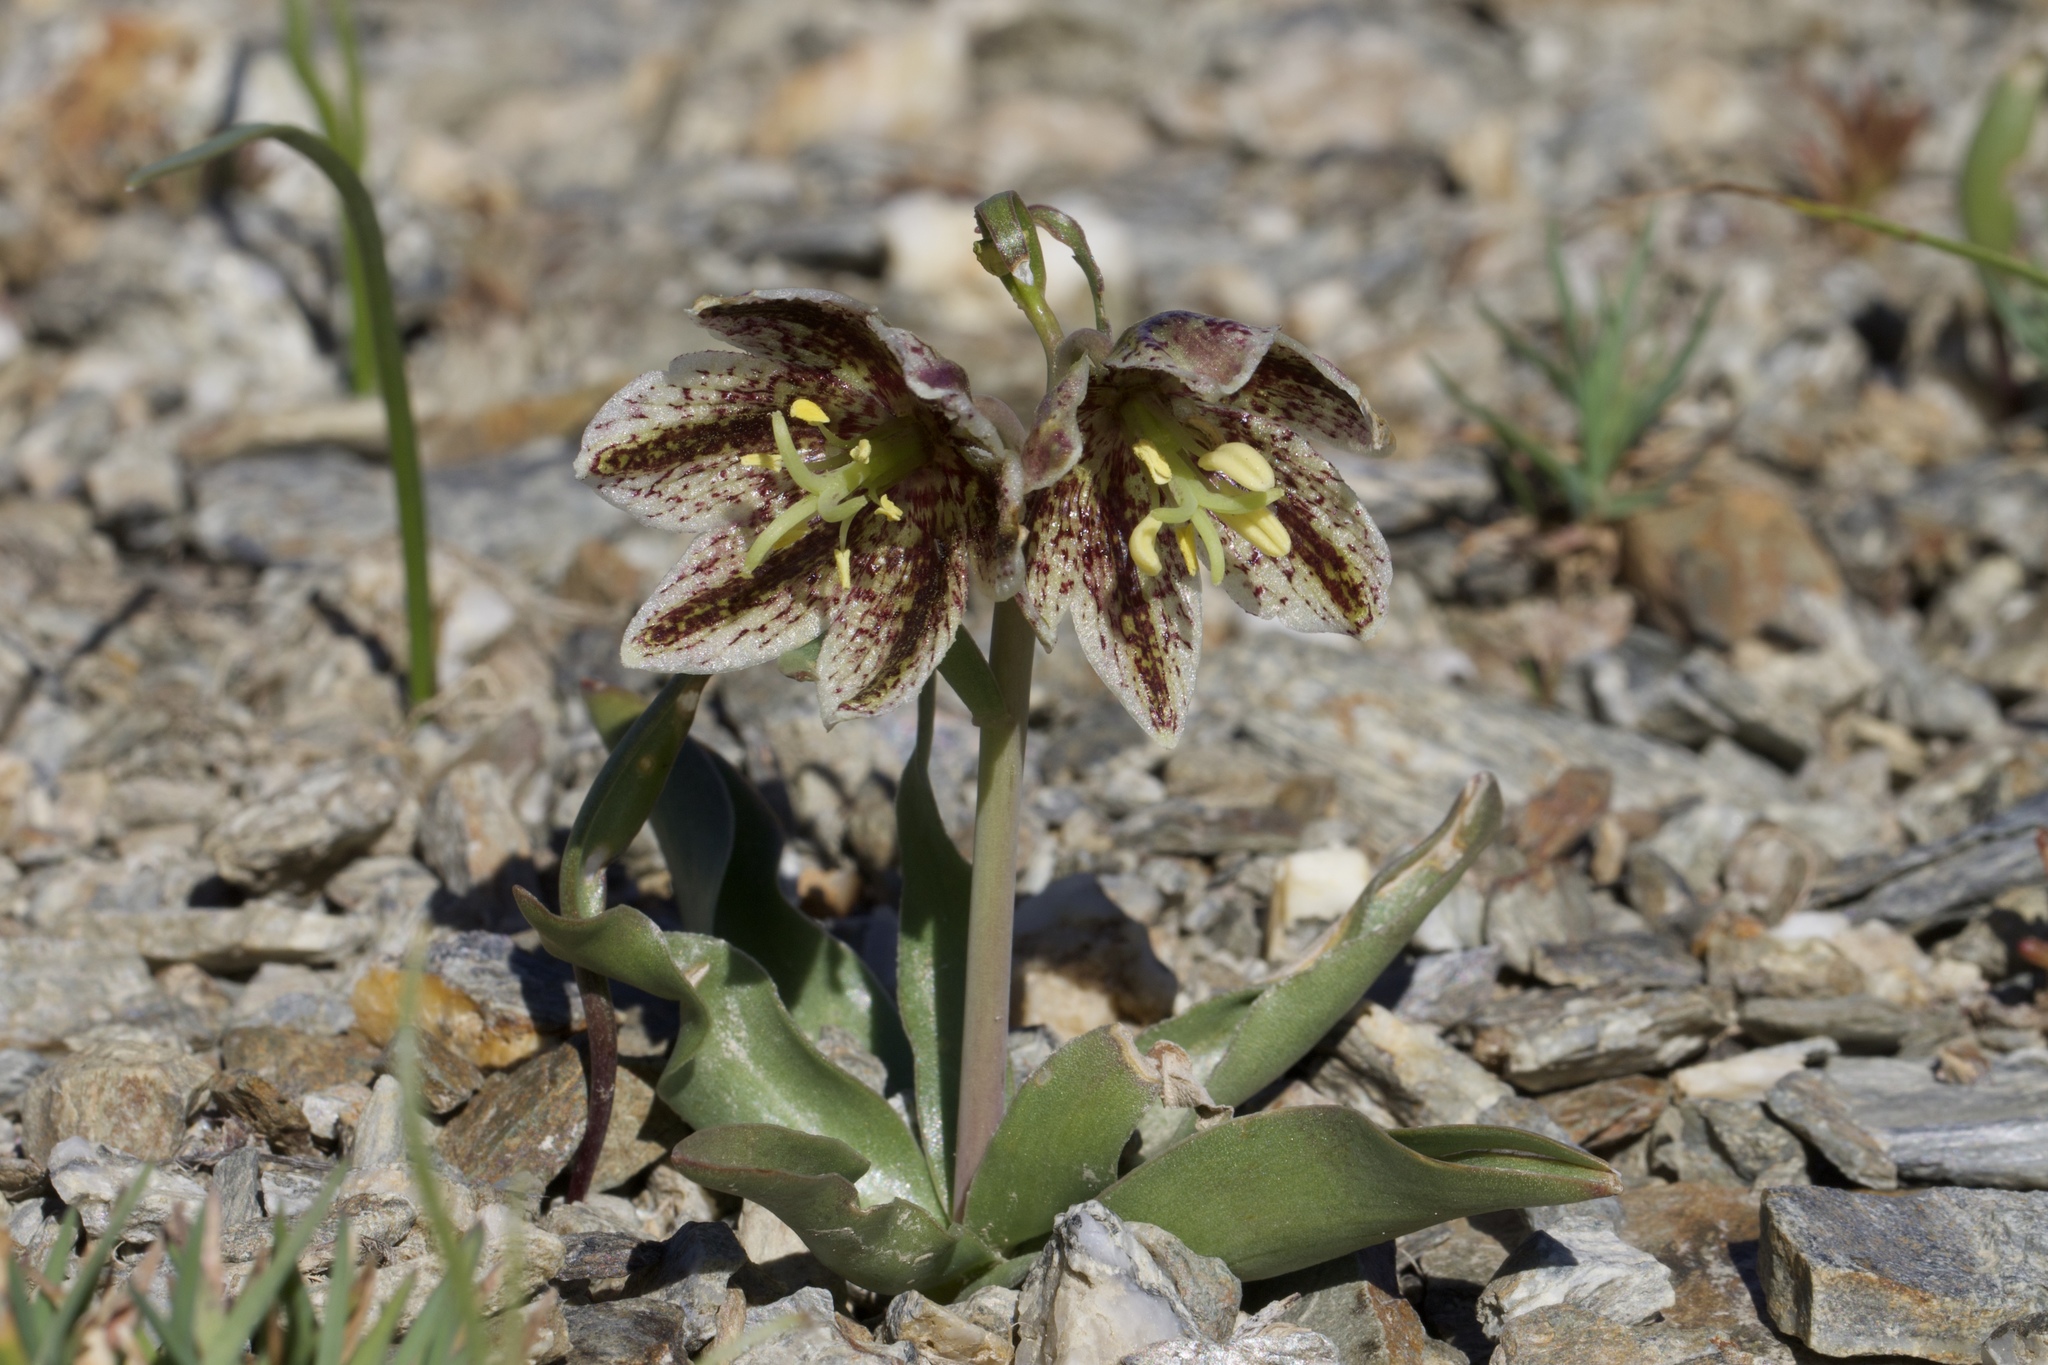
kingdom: Plantae
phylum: Tracheophyta
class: Liliopsida
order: Liliales
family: Liliaceae
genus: Fritillaria
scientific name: Fritillaria purdyi
